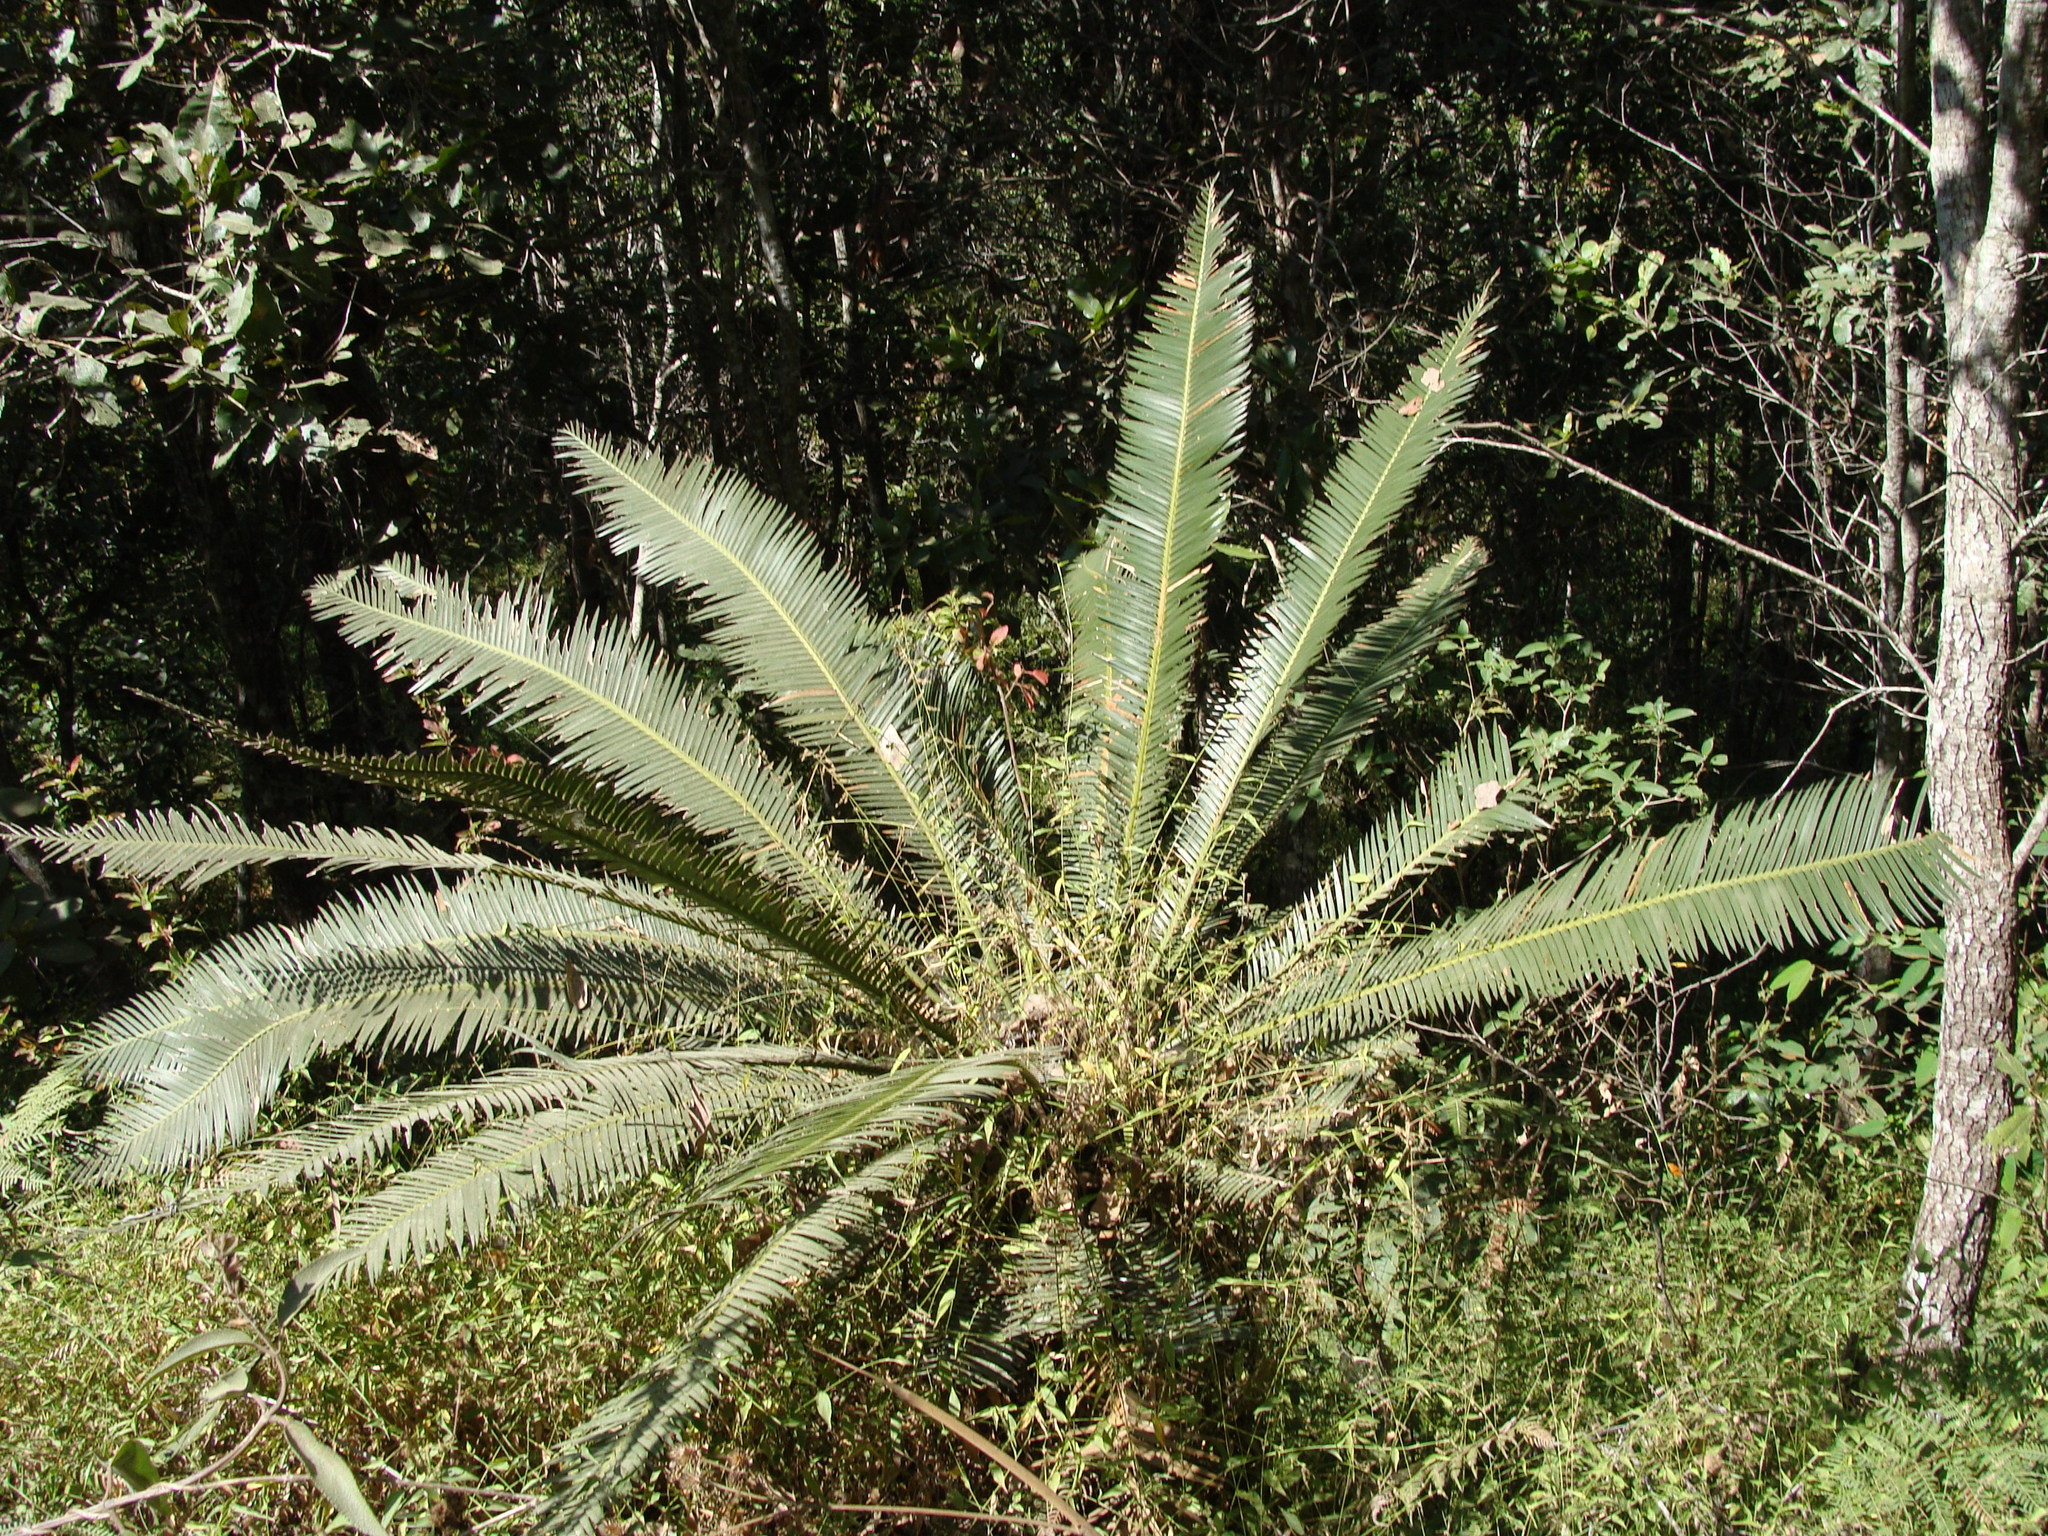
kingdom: Plantae
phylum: Tracheophyta
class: Cycadopsida
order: Cycadales
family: Zamiaceae
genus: Dioon
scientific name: Dioon holmgrenii
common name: Sun palm
